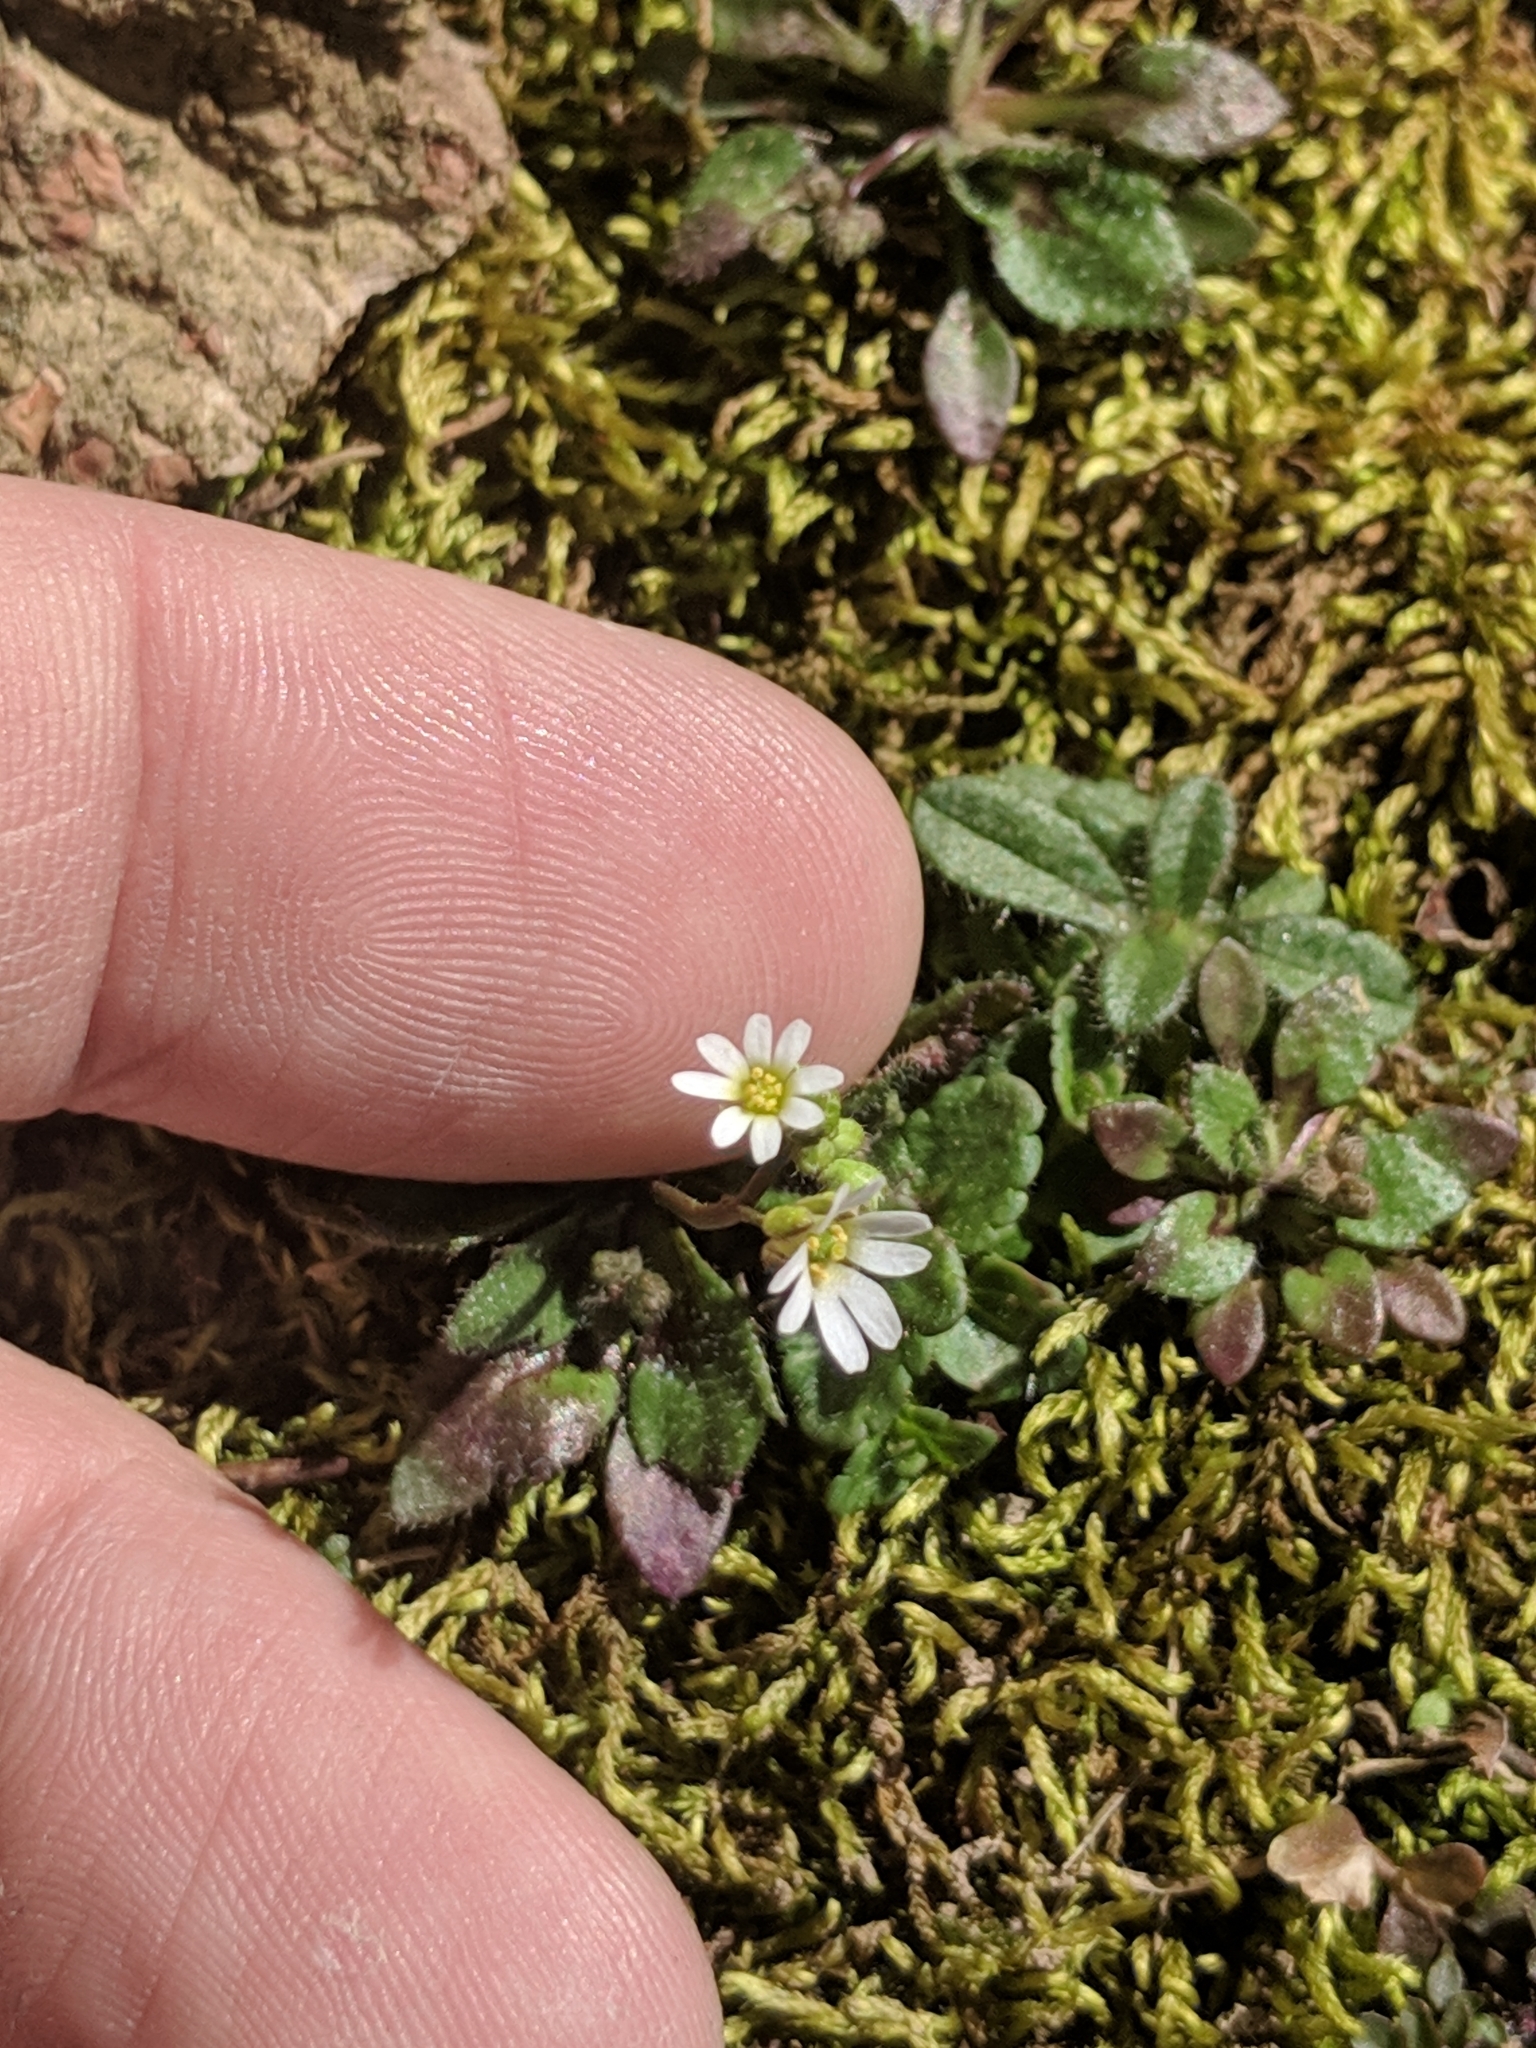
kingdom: Plantae
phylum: Tracheophyta
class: Magnoliopsida
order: Brassicales
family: Brassicaceae
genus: Draba
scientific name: Draba verna
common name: Spring draba
